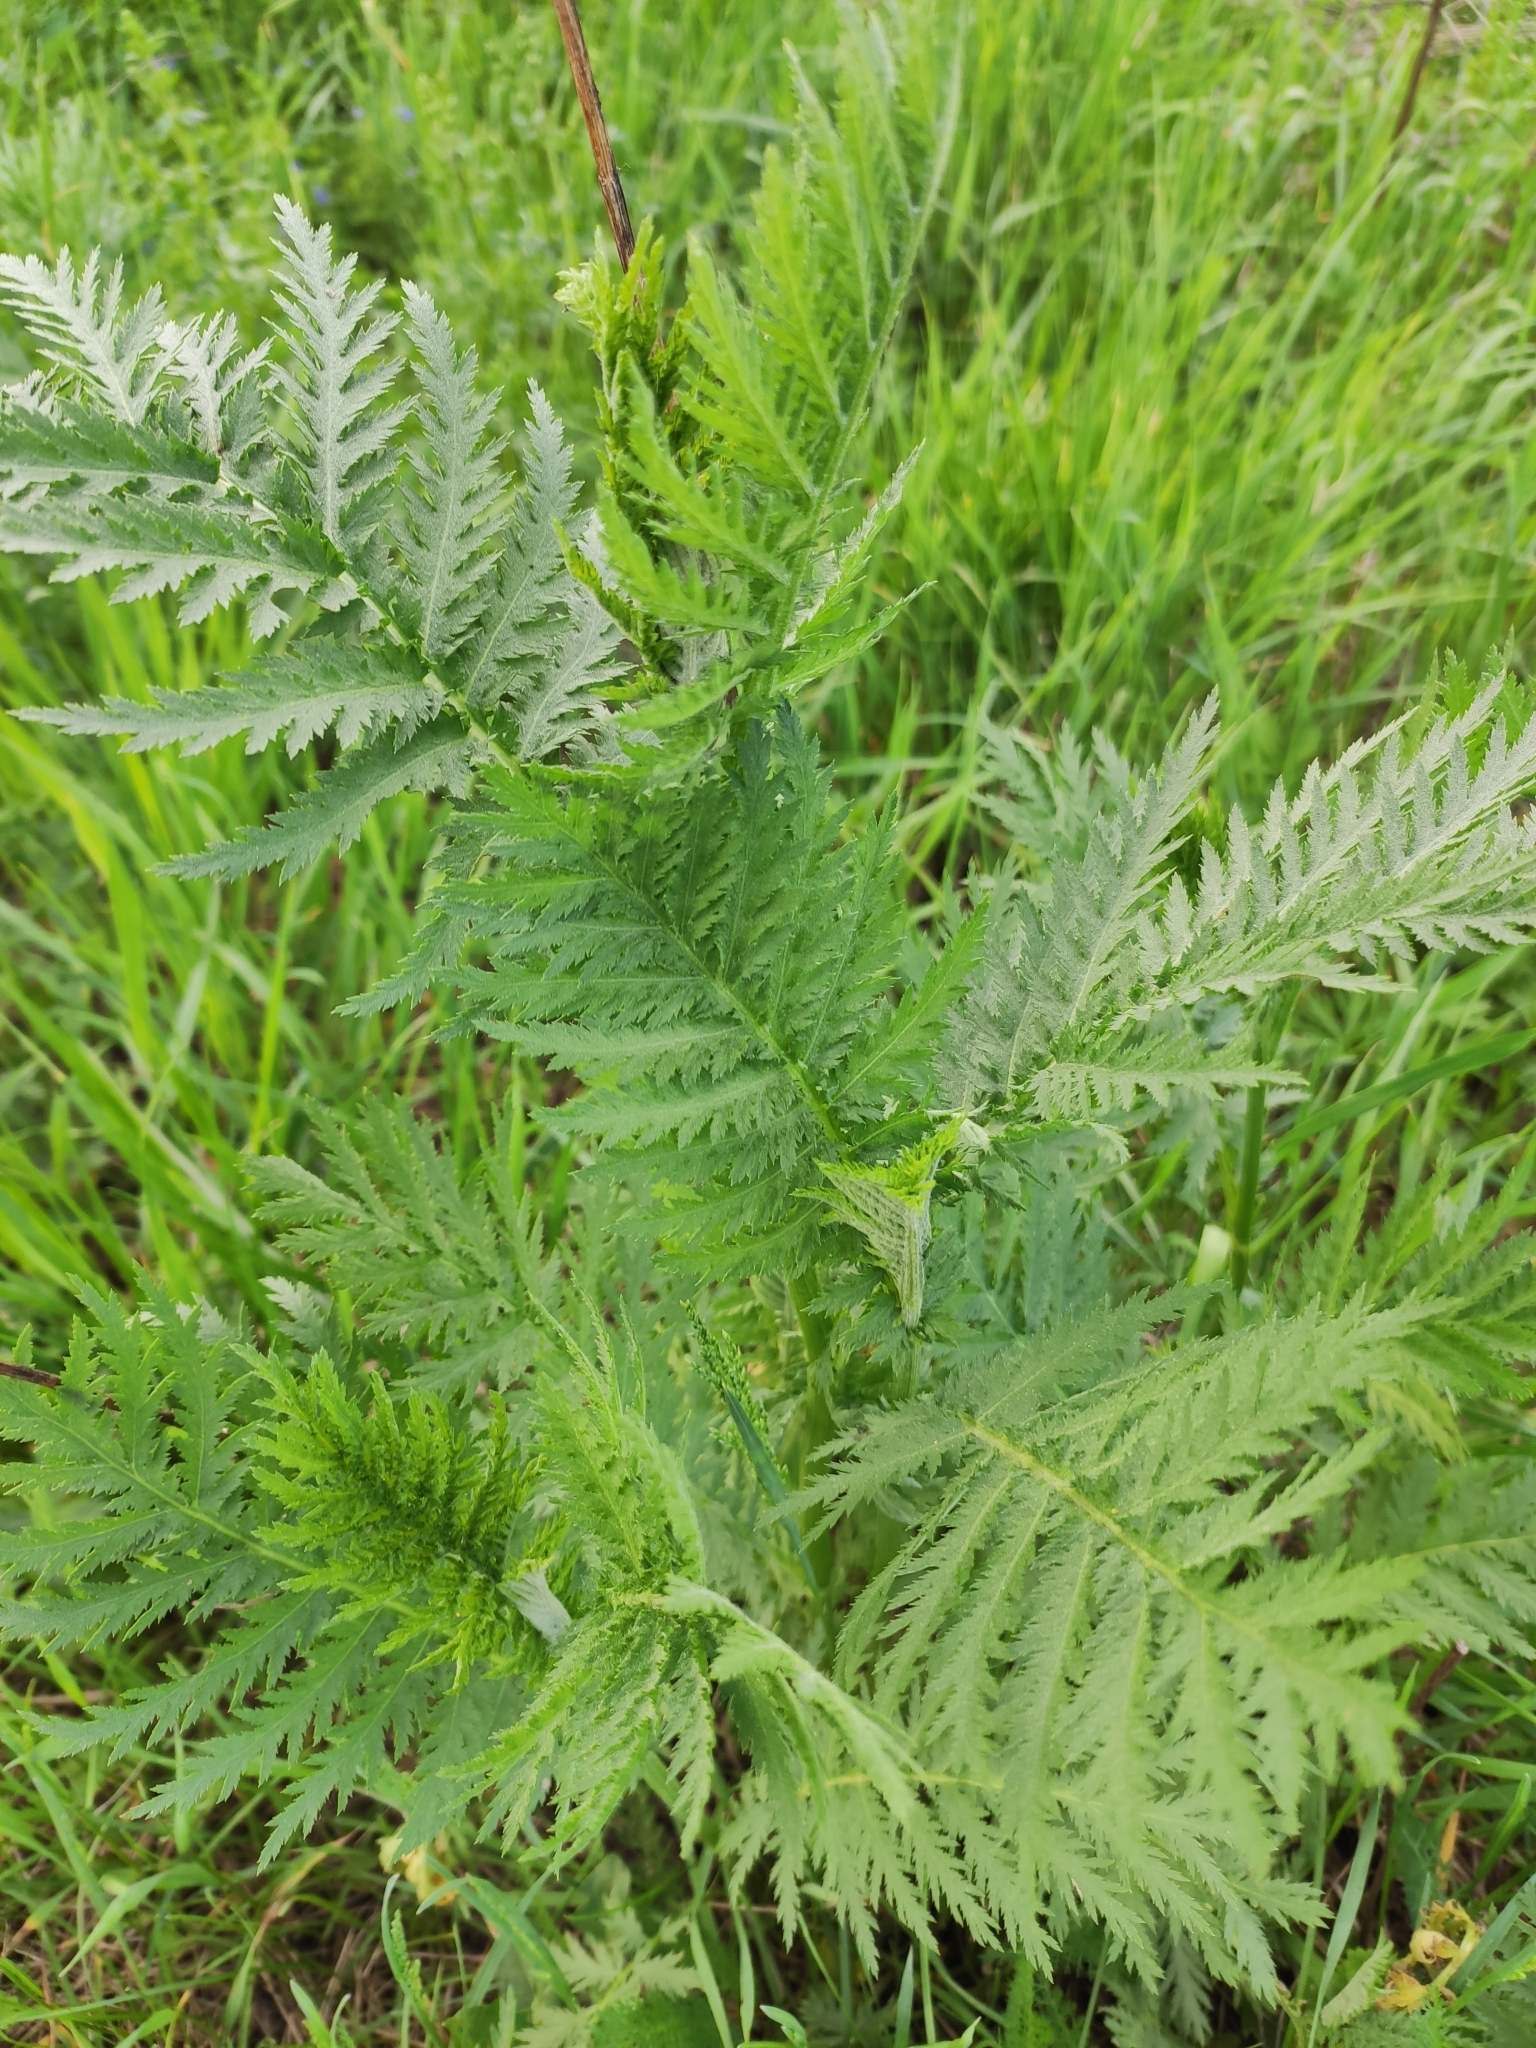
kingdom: Plantae
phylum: Tracheophyta
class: Magnoliopsida
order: Asterales
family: Asteraceae
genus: Tanacetum
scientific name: Tanacetum vulgare
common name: Common tansy
